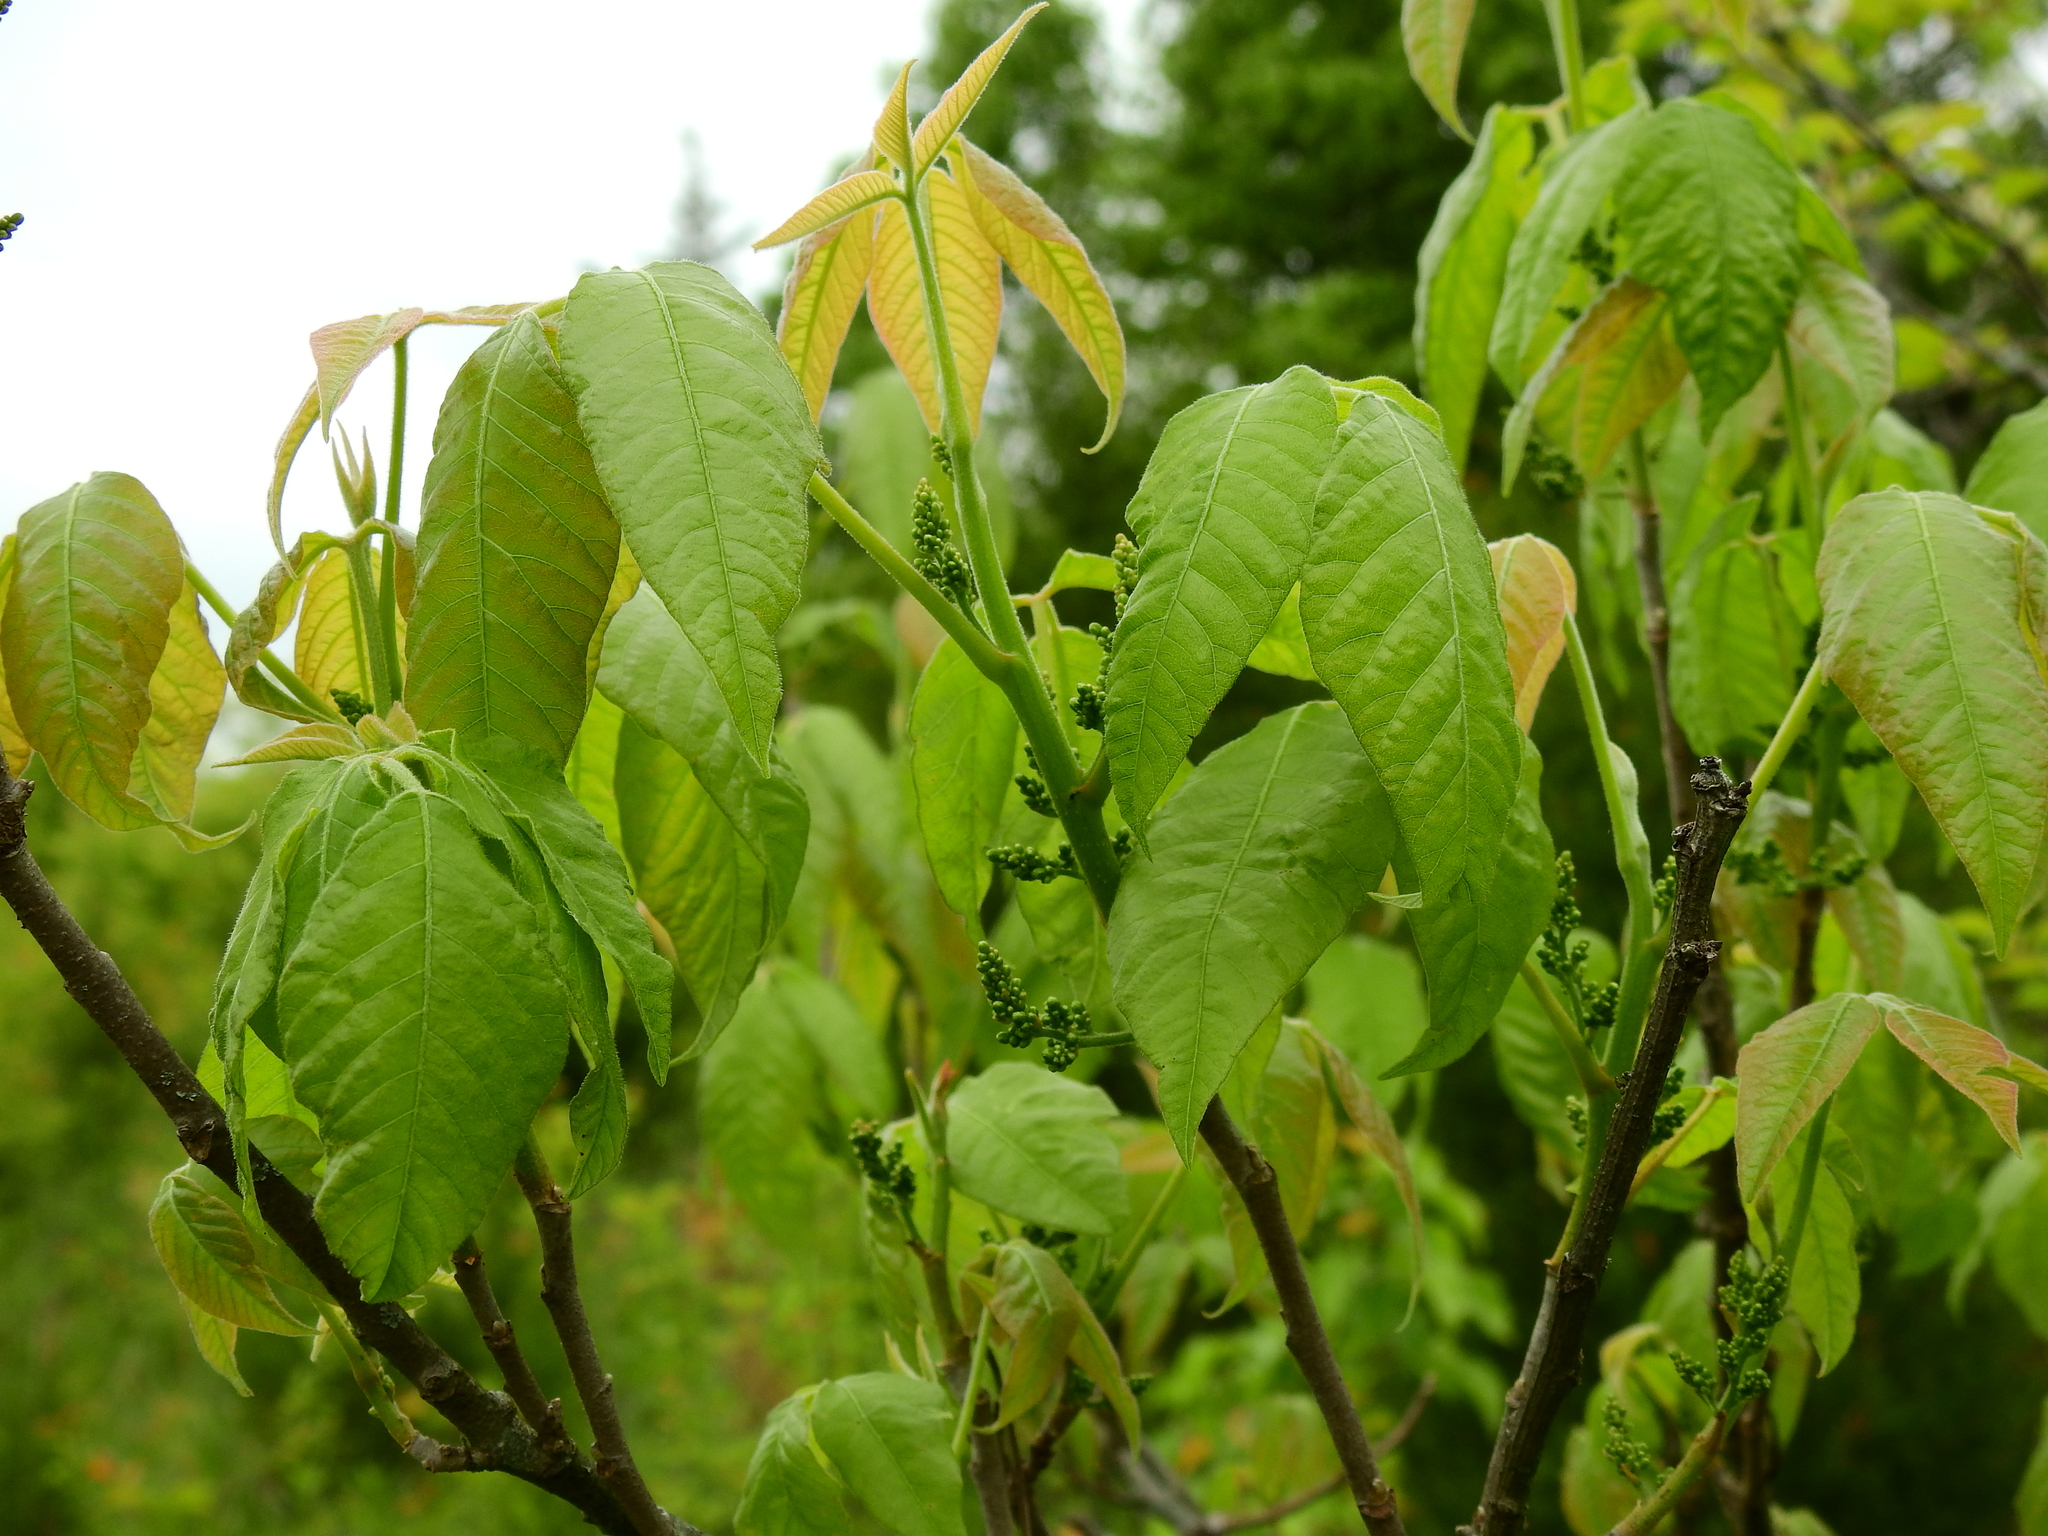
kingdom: Plantae
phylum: Tracheophyta
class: Magnoliopsida
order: Sapindales
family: Anacardiaceae
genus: Toxicodendron
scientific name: Toxicodendron radicans
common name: Poison ivy
